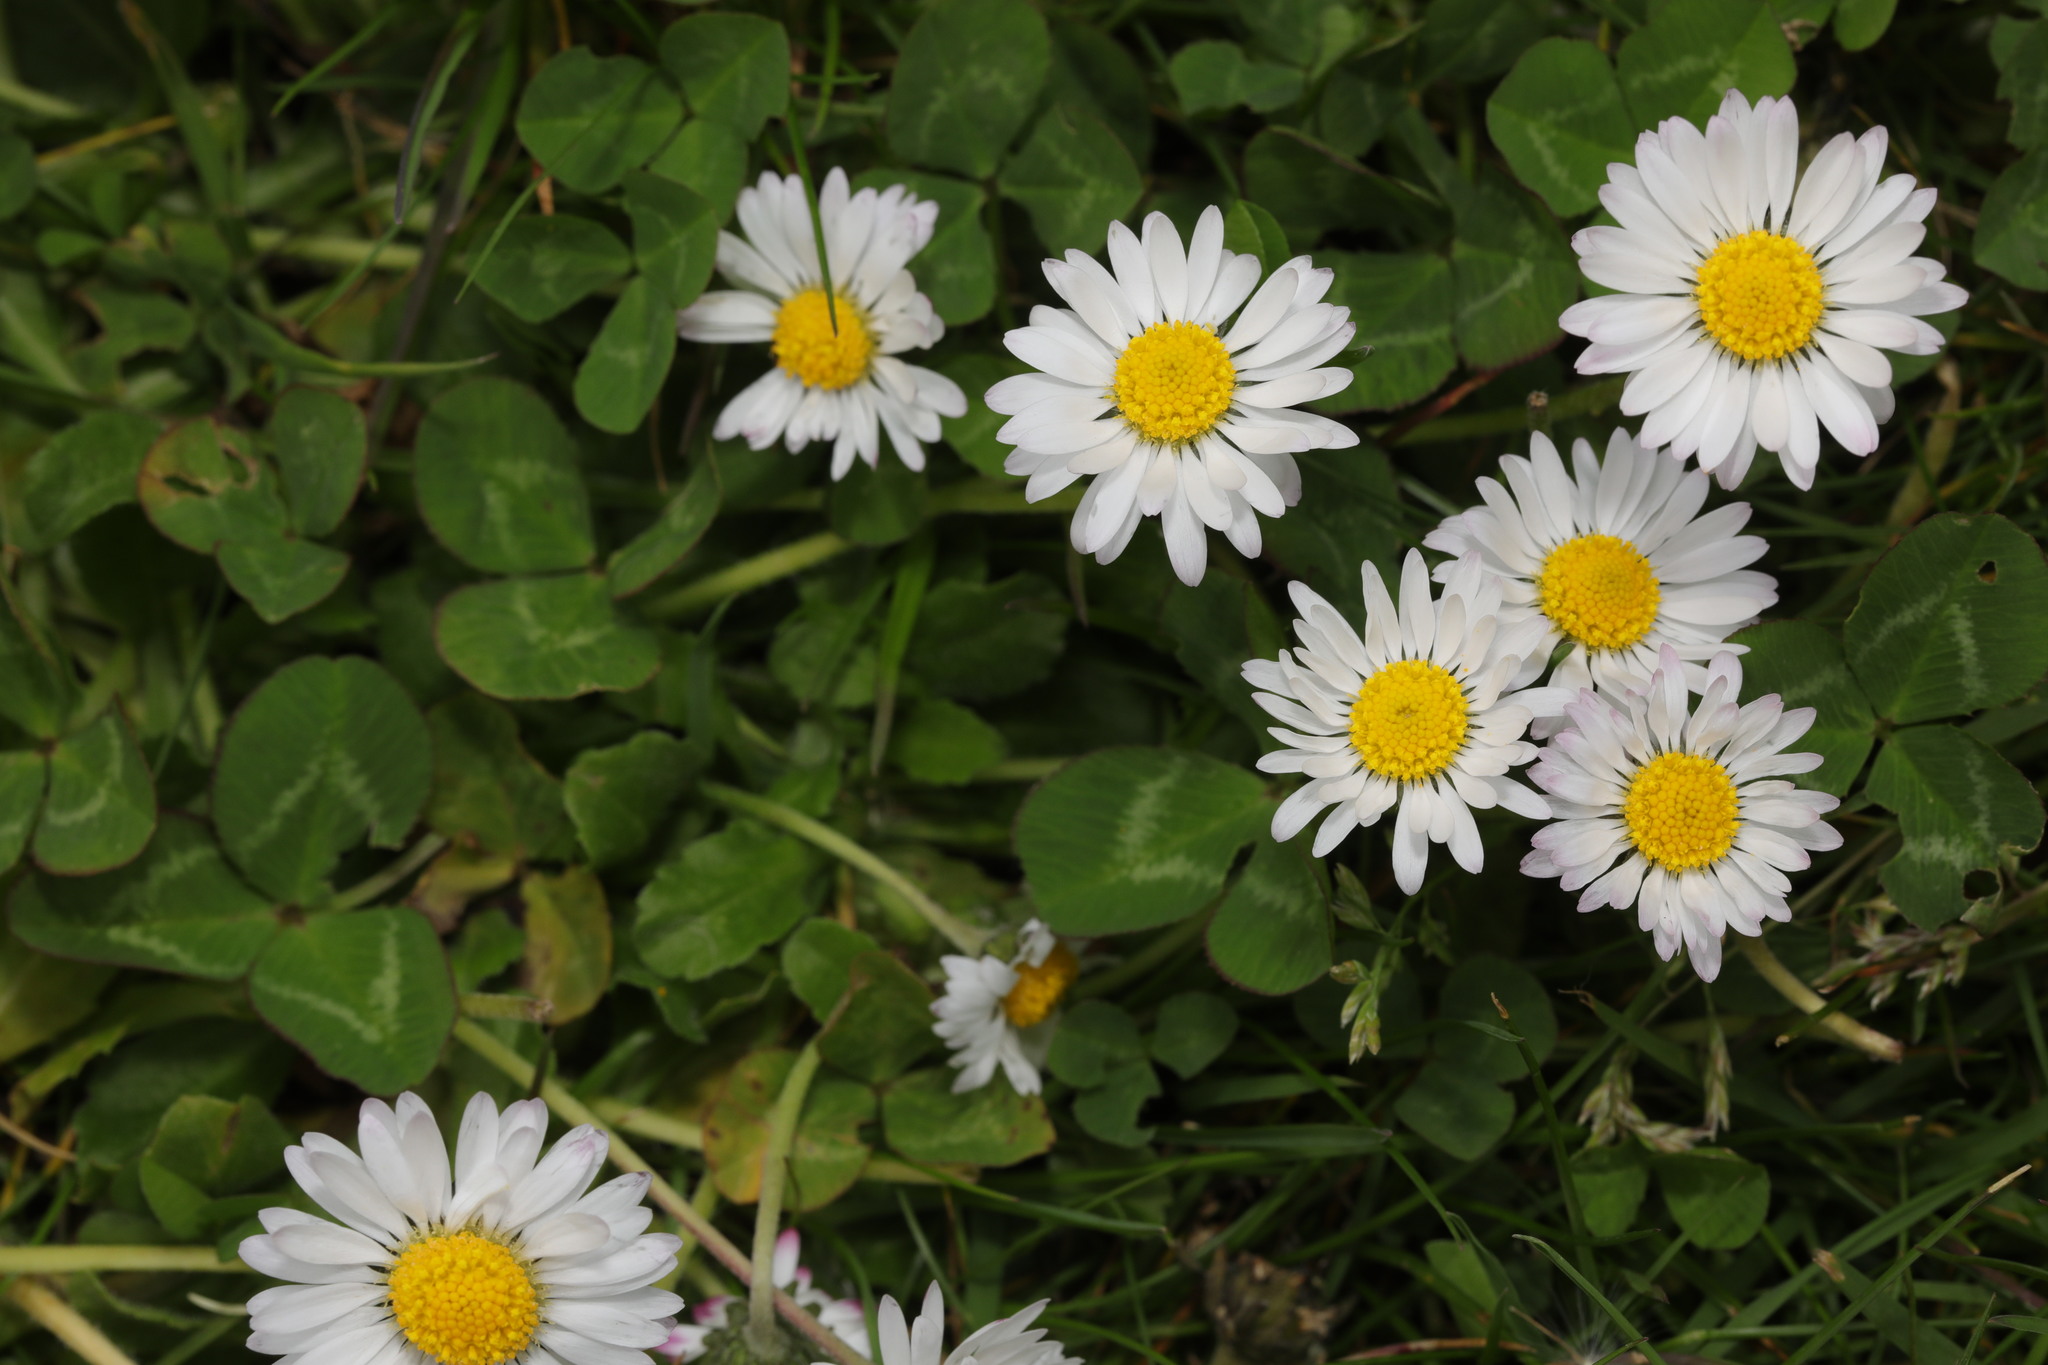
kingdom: Plantae
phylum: Tracheophyta
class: Magnoliopsida
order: Asterales
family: Asteraceae
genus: Bellis
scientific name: Bellis perennis
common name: Lawndaisy
